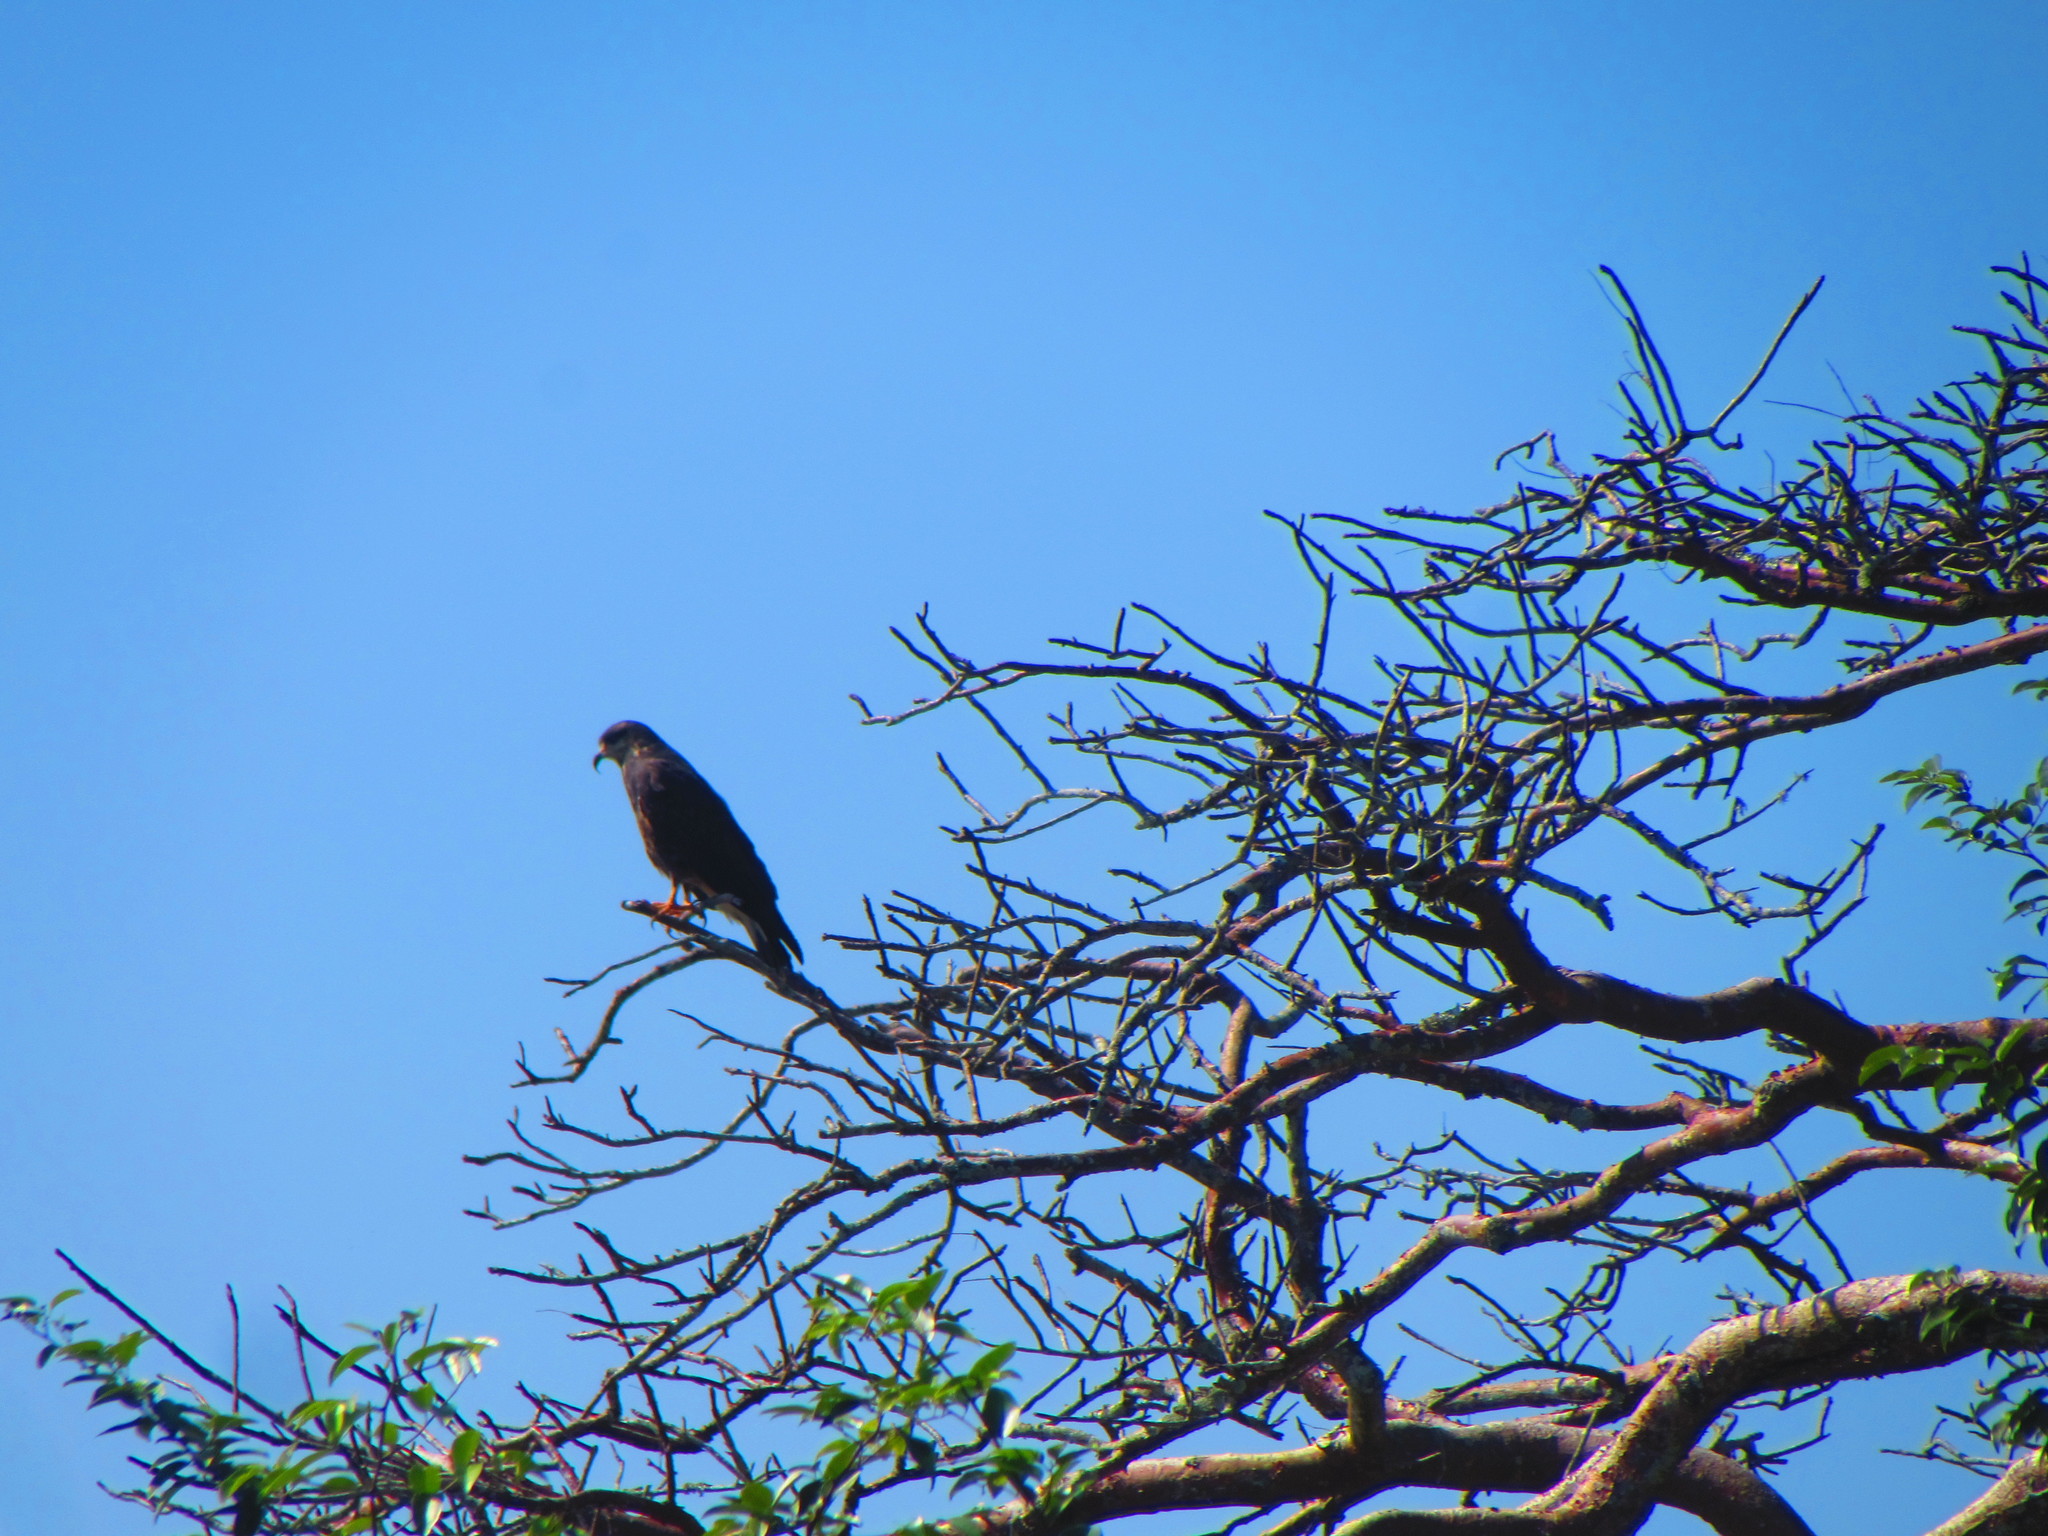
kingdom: Animalia
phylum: Chordata
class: Aves
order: Accipitriformes
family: Accipitridae
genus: Rostrhamus
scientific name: Rostrhamus sociabilis
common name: Snail kite
